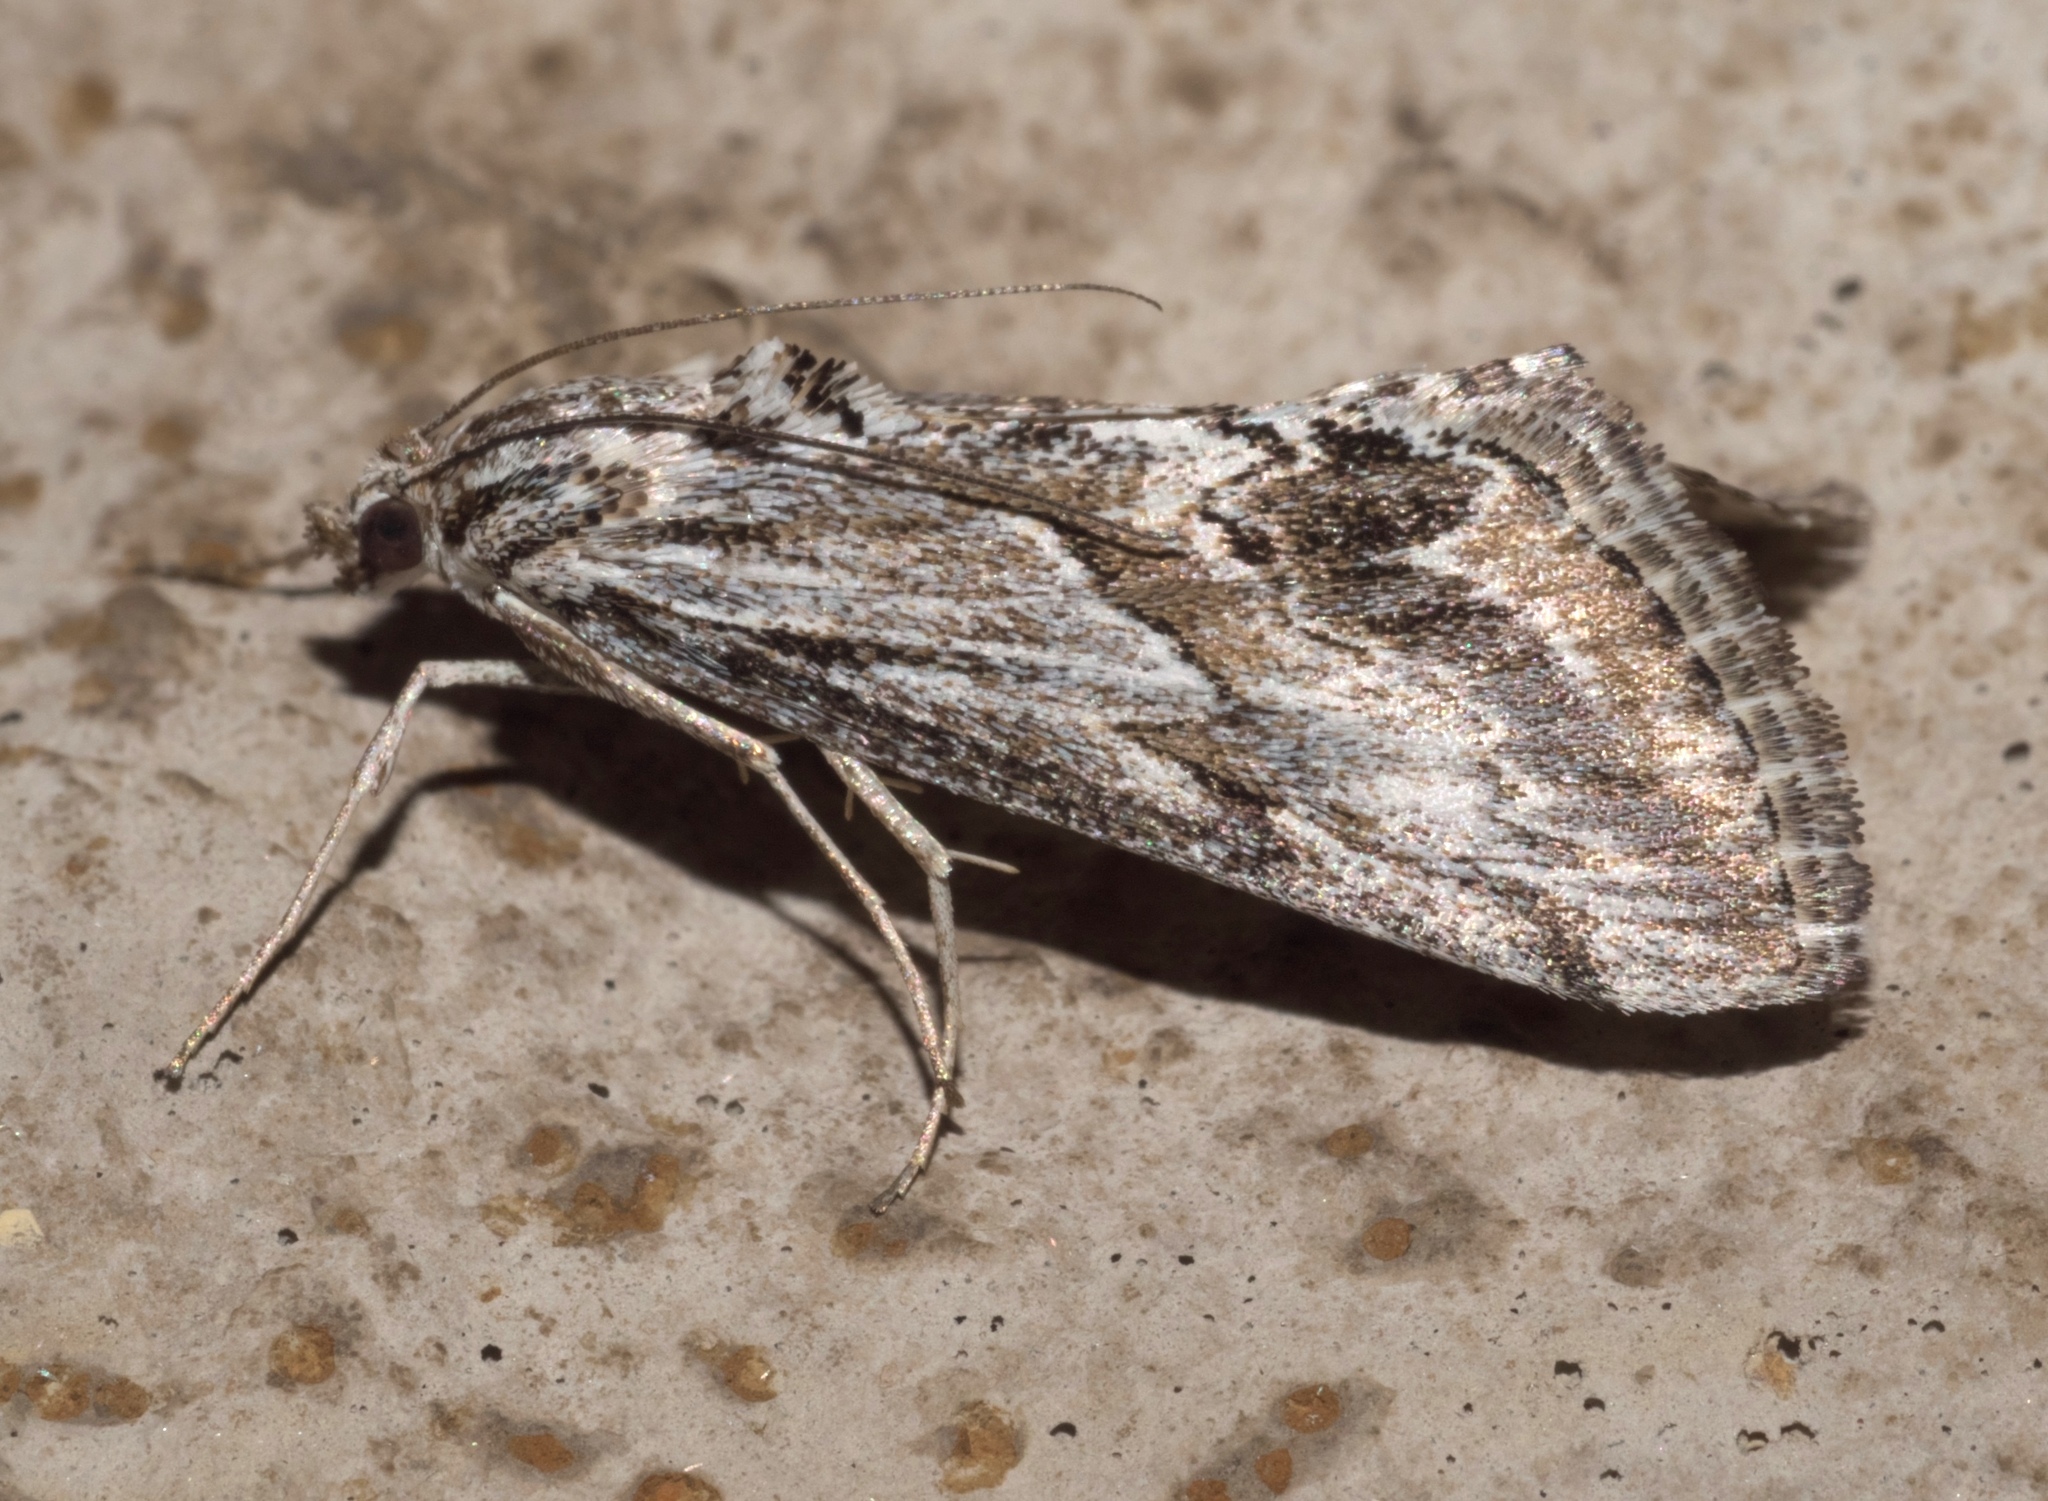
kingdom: Animalia
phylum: Arthropoda
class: Insecta
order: Lepidoptera
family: Crambidae
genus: Evergestis
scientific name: Evergestis simulatilis
